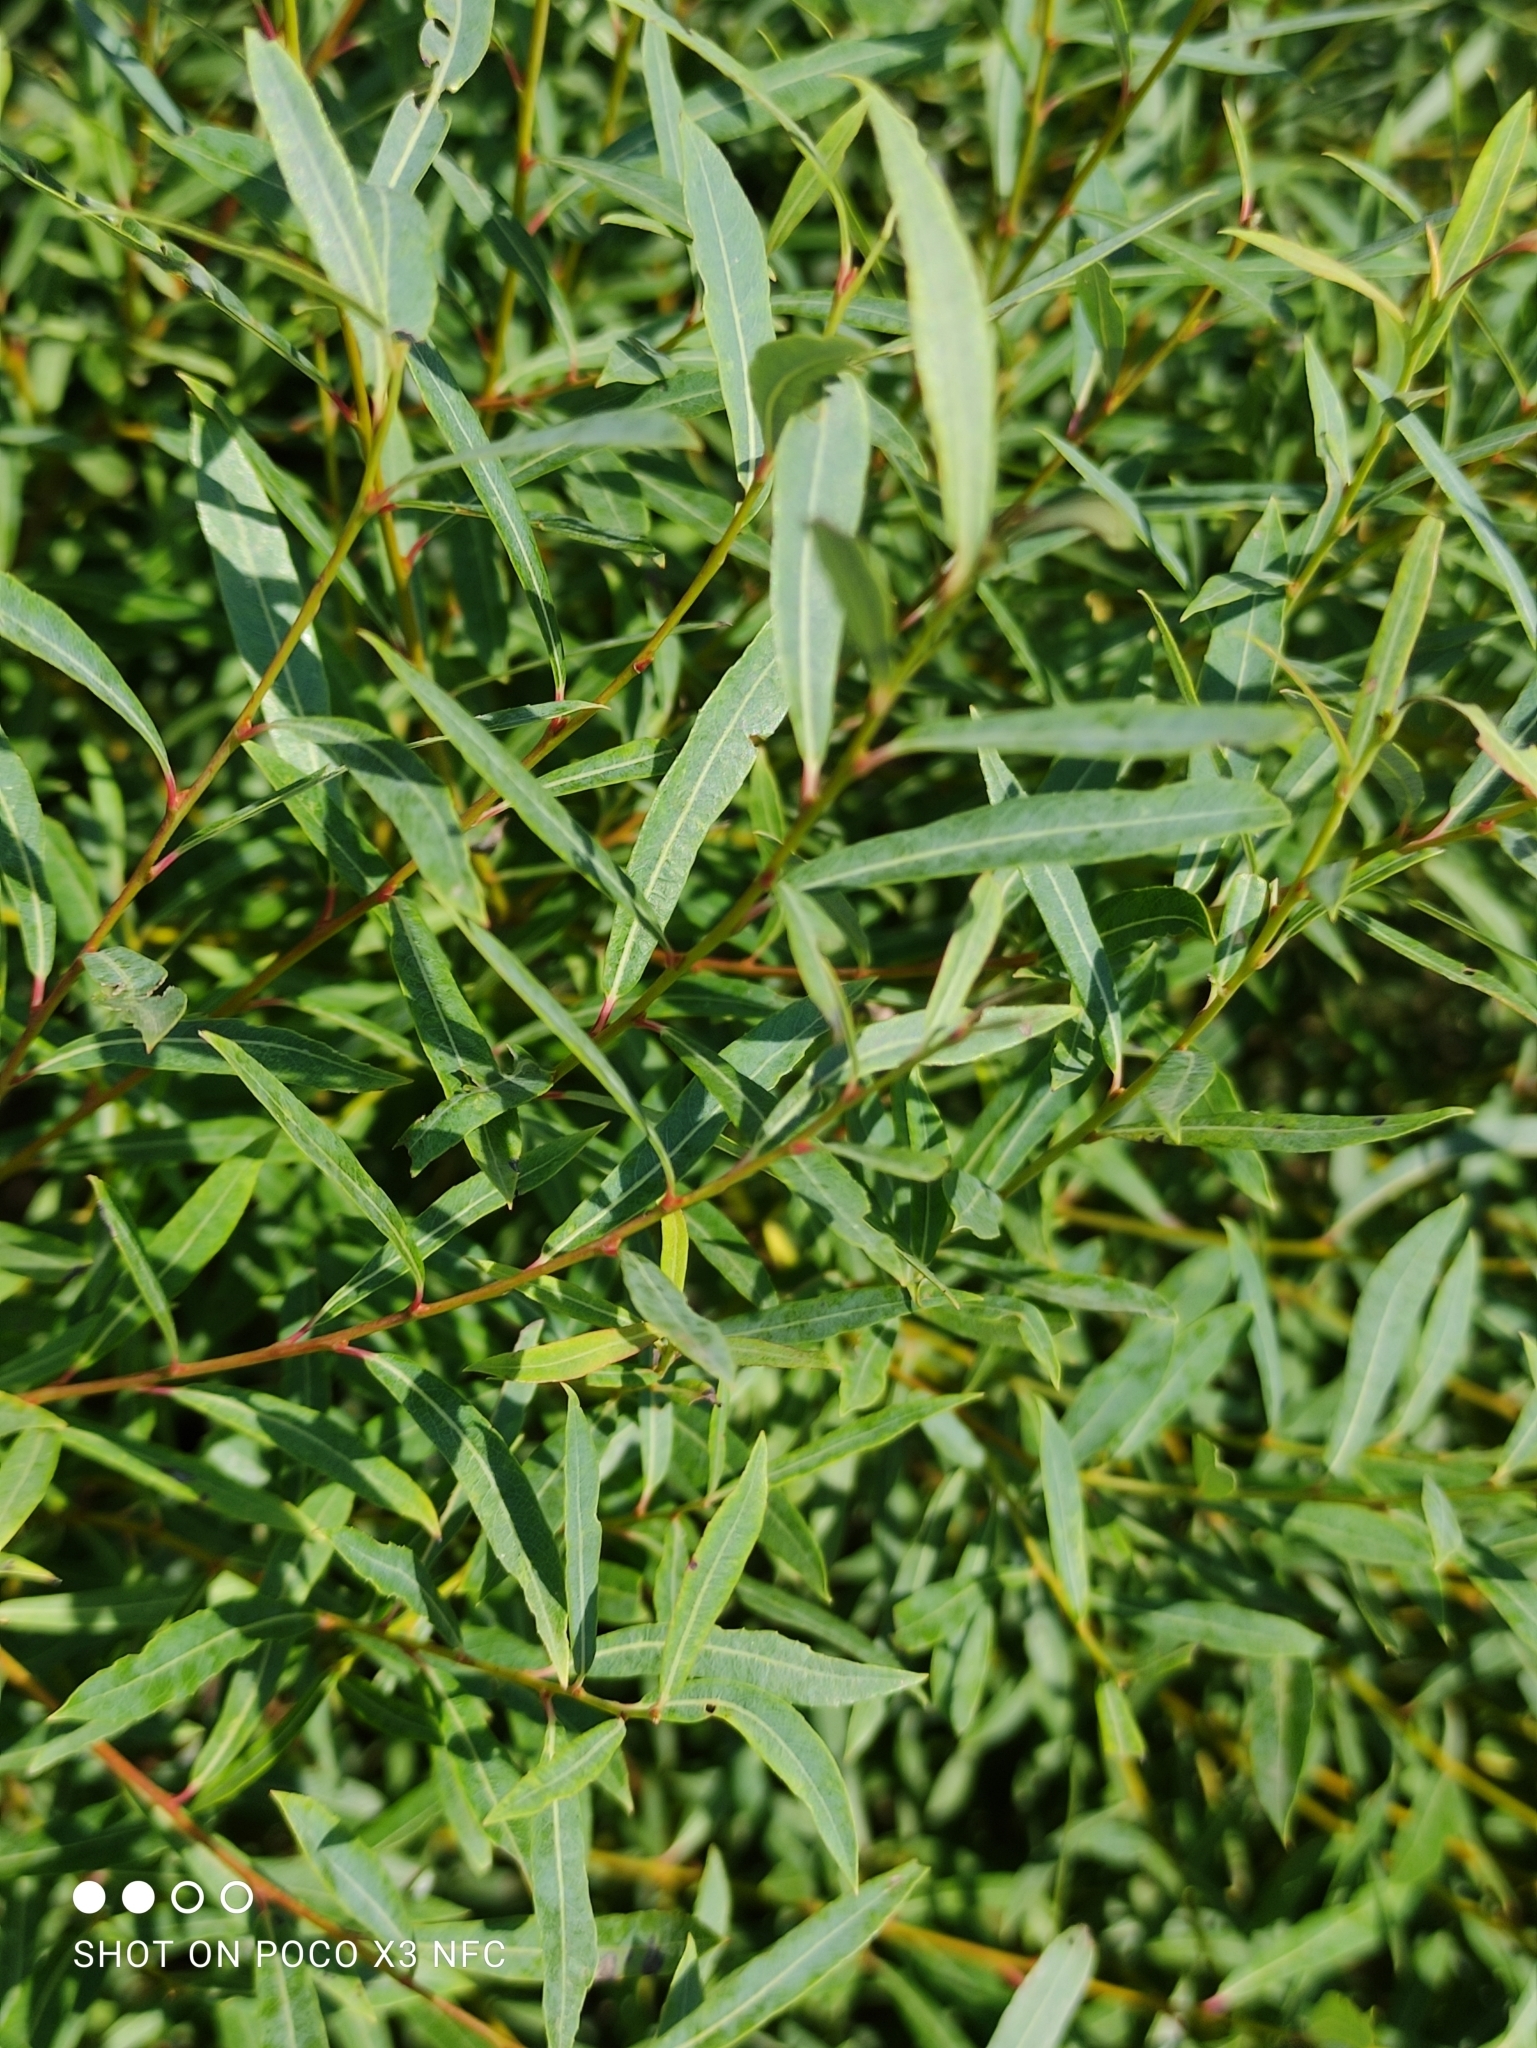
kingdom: Plantae
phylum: Tracheophyta
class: Magnoliopsida
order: Malpighiales
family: Salicaceae
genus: Salix
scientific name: Salix purpurea
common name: Purple willow
